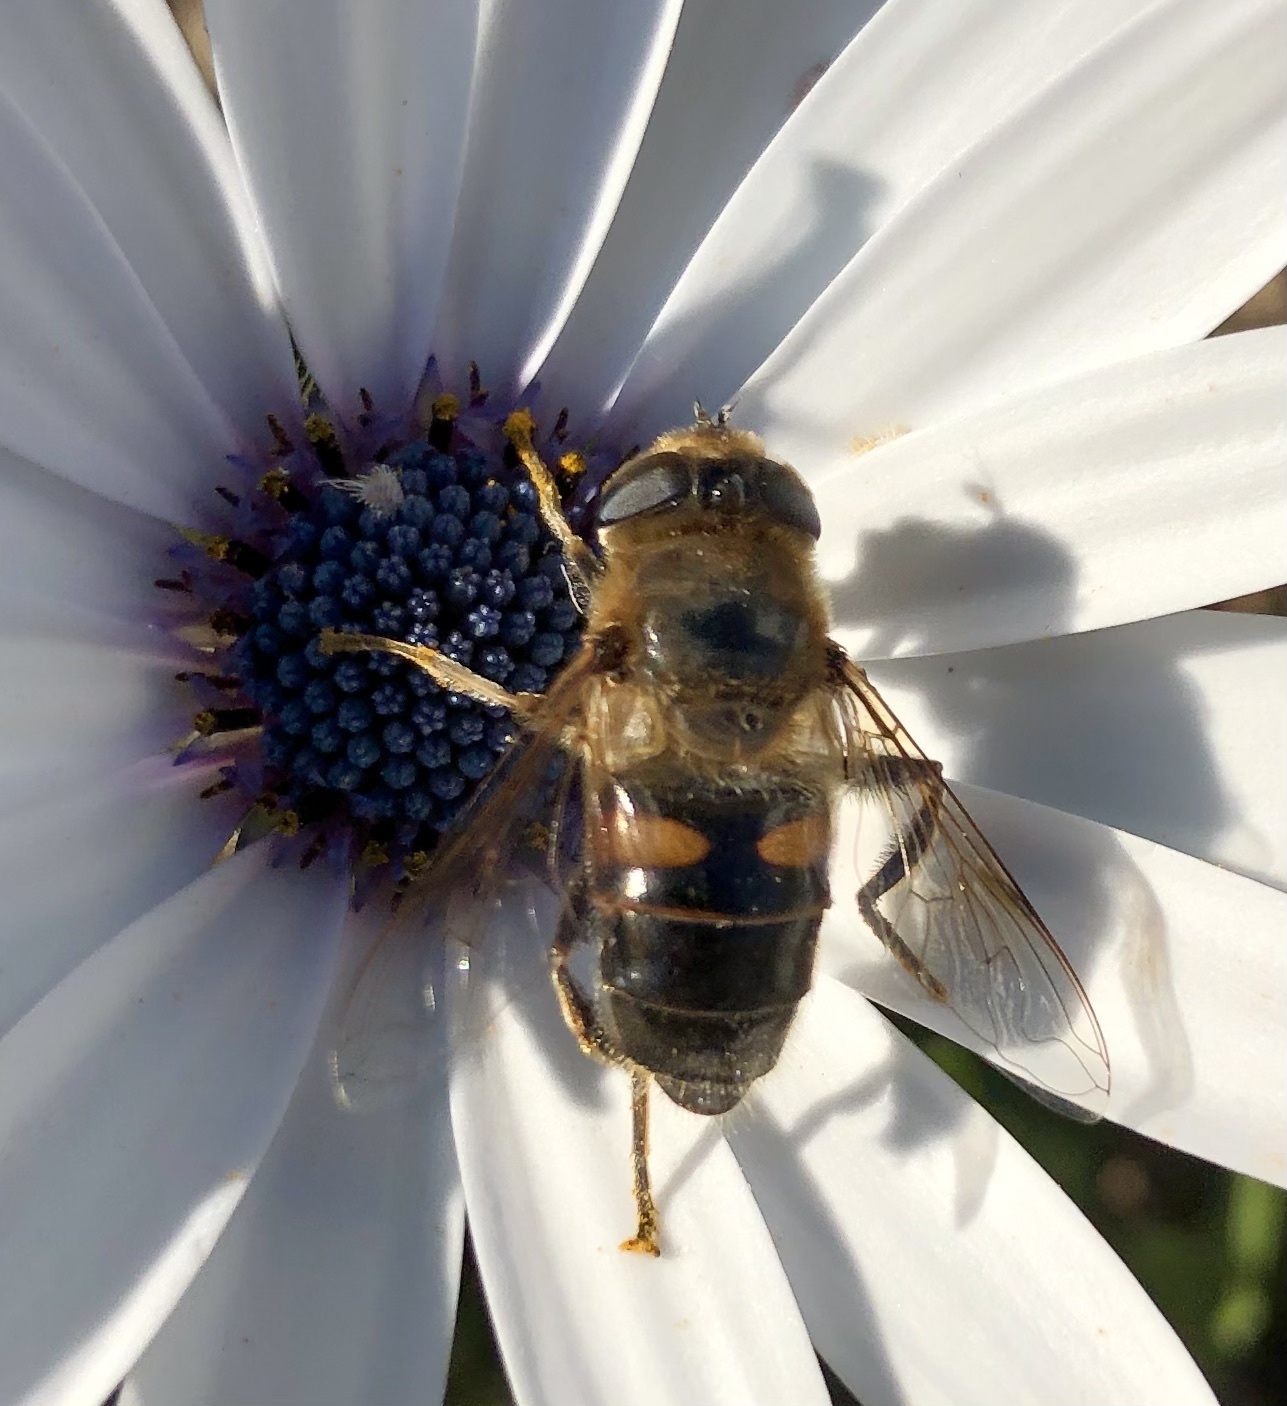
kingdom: Animalia
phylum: Arthropoda
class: Insecta
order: Diptera
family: Syrphidae
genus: Eristalis
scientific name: Eristalis tenax
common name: Drone fly
